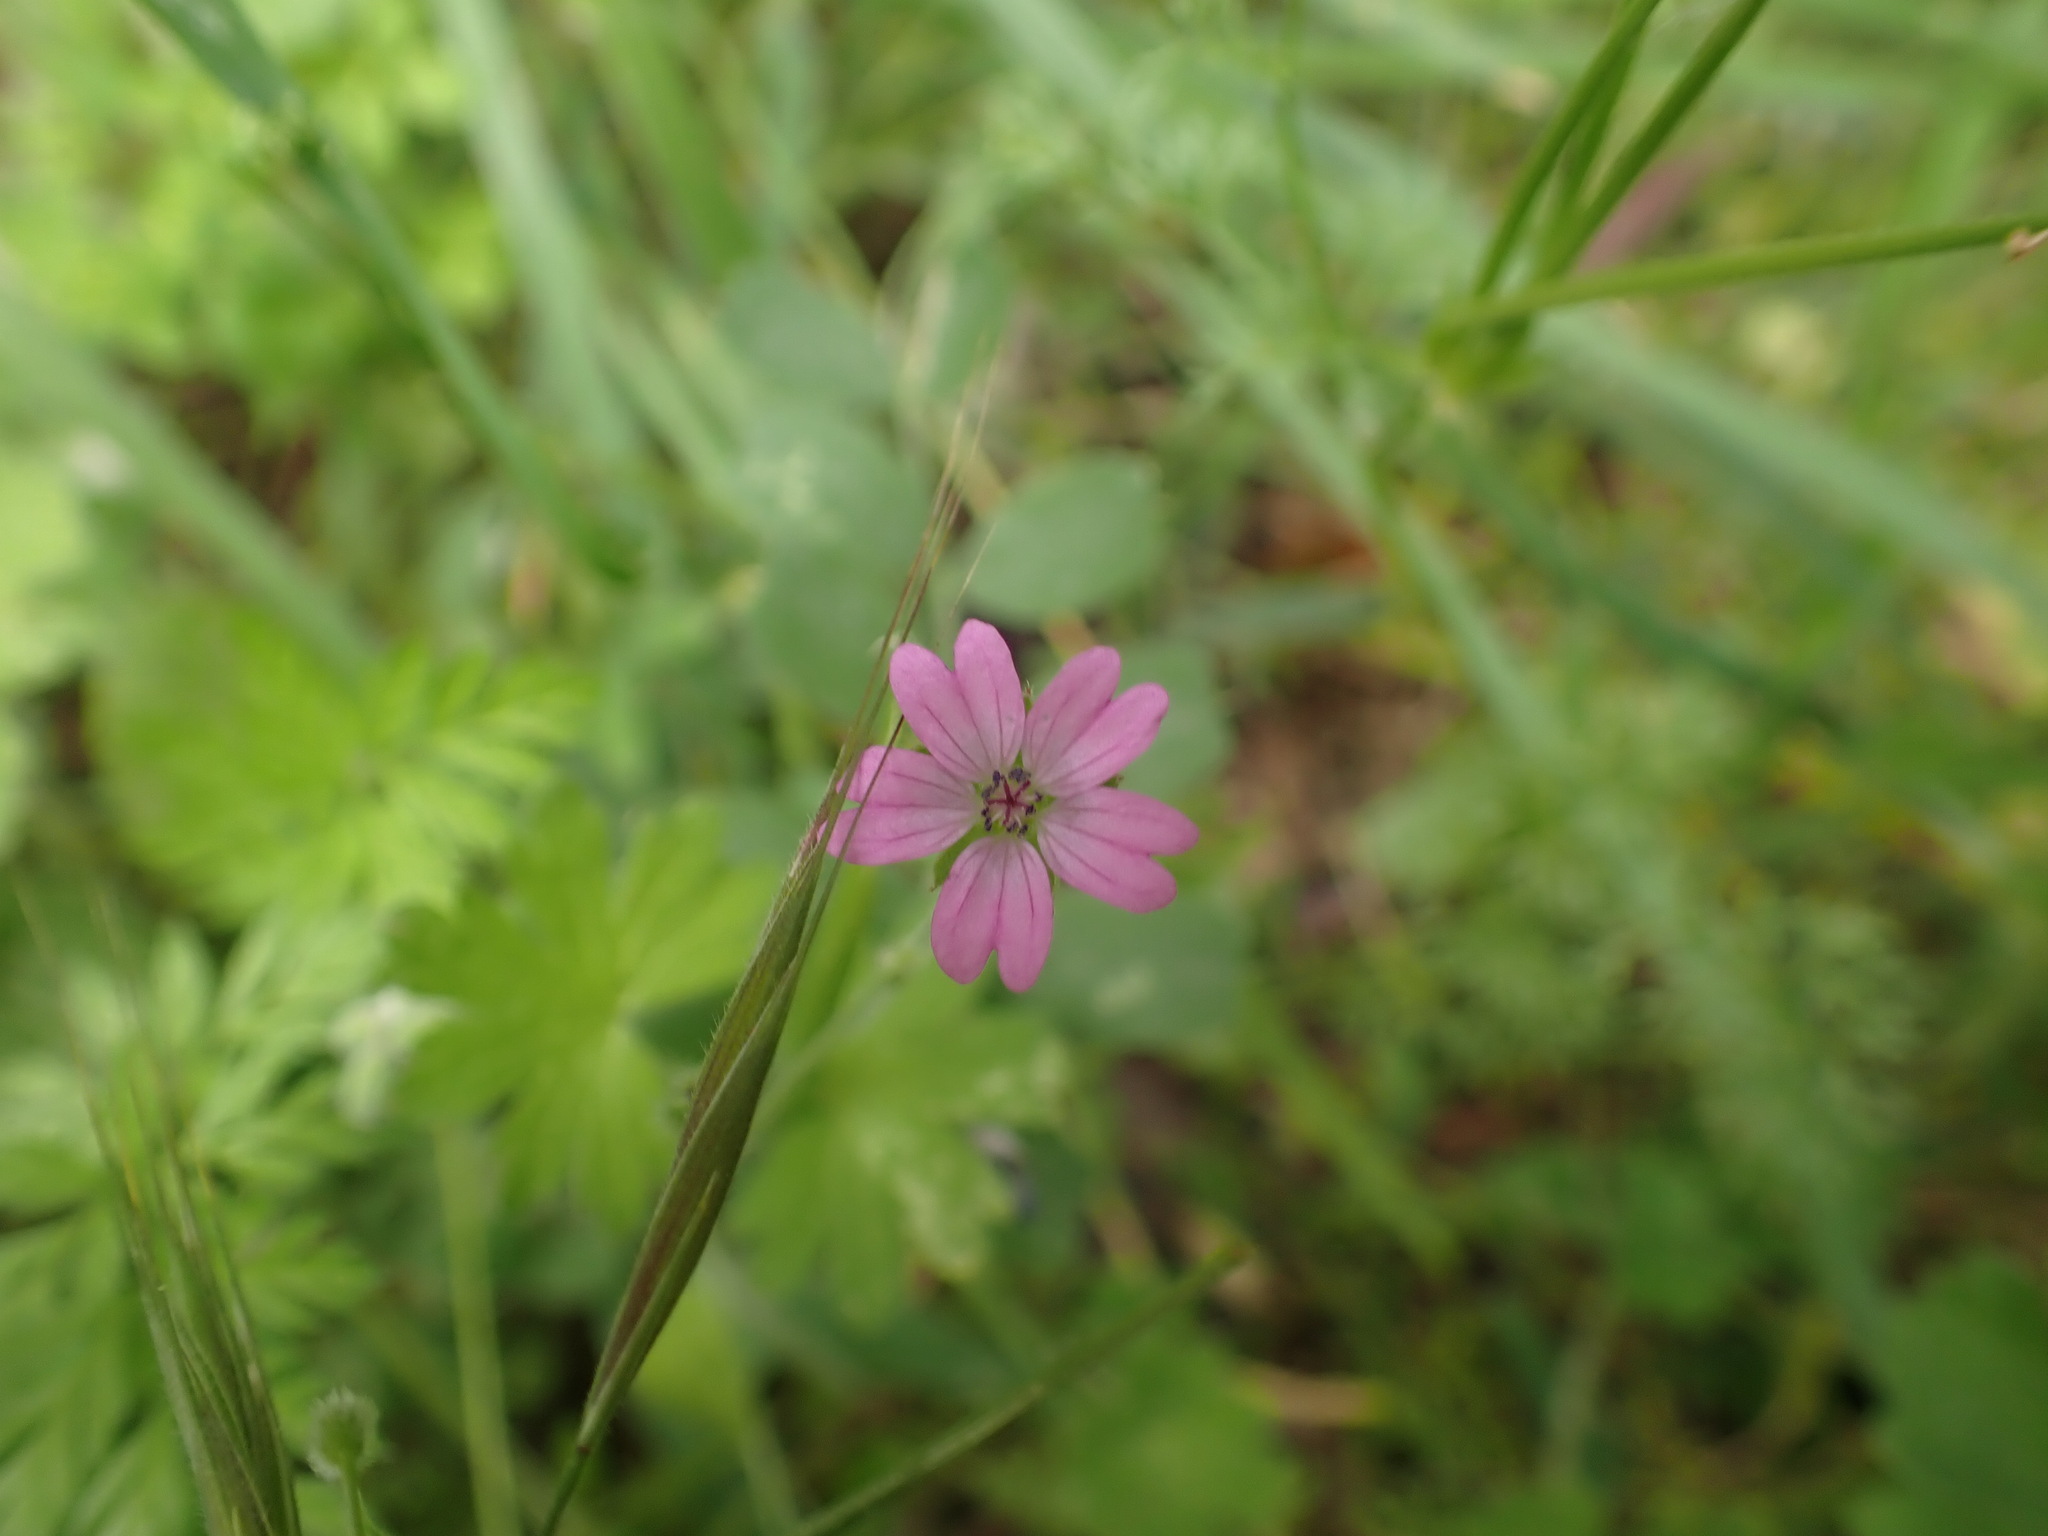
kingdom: Plantae
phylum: Tracheophyta
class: Magnoliopsida
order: Geraniales
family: Geraniaceae
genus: Geranium
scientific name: Geranium molle
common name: Dove's-foot crane's-bill
